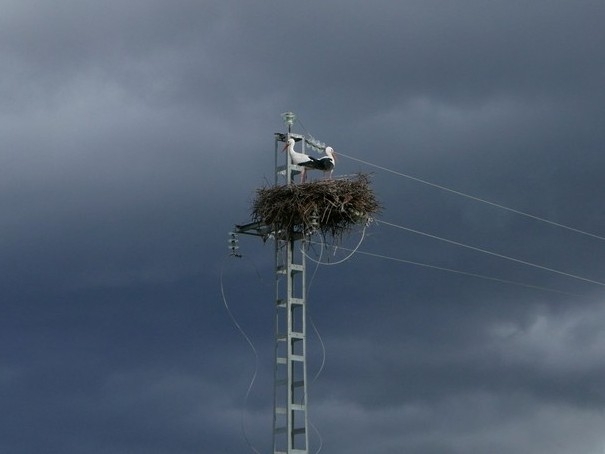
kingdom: Animalia
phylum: Chordata
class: Aves
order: Ciconiiformes
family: Ciconiidae
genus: Ciconia
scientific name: Ciconia ciconia
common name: White stork
